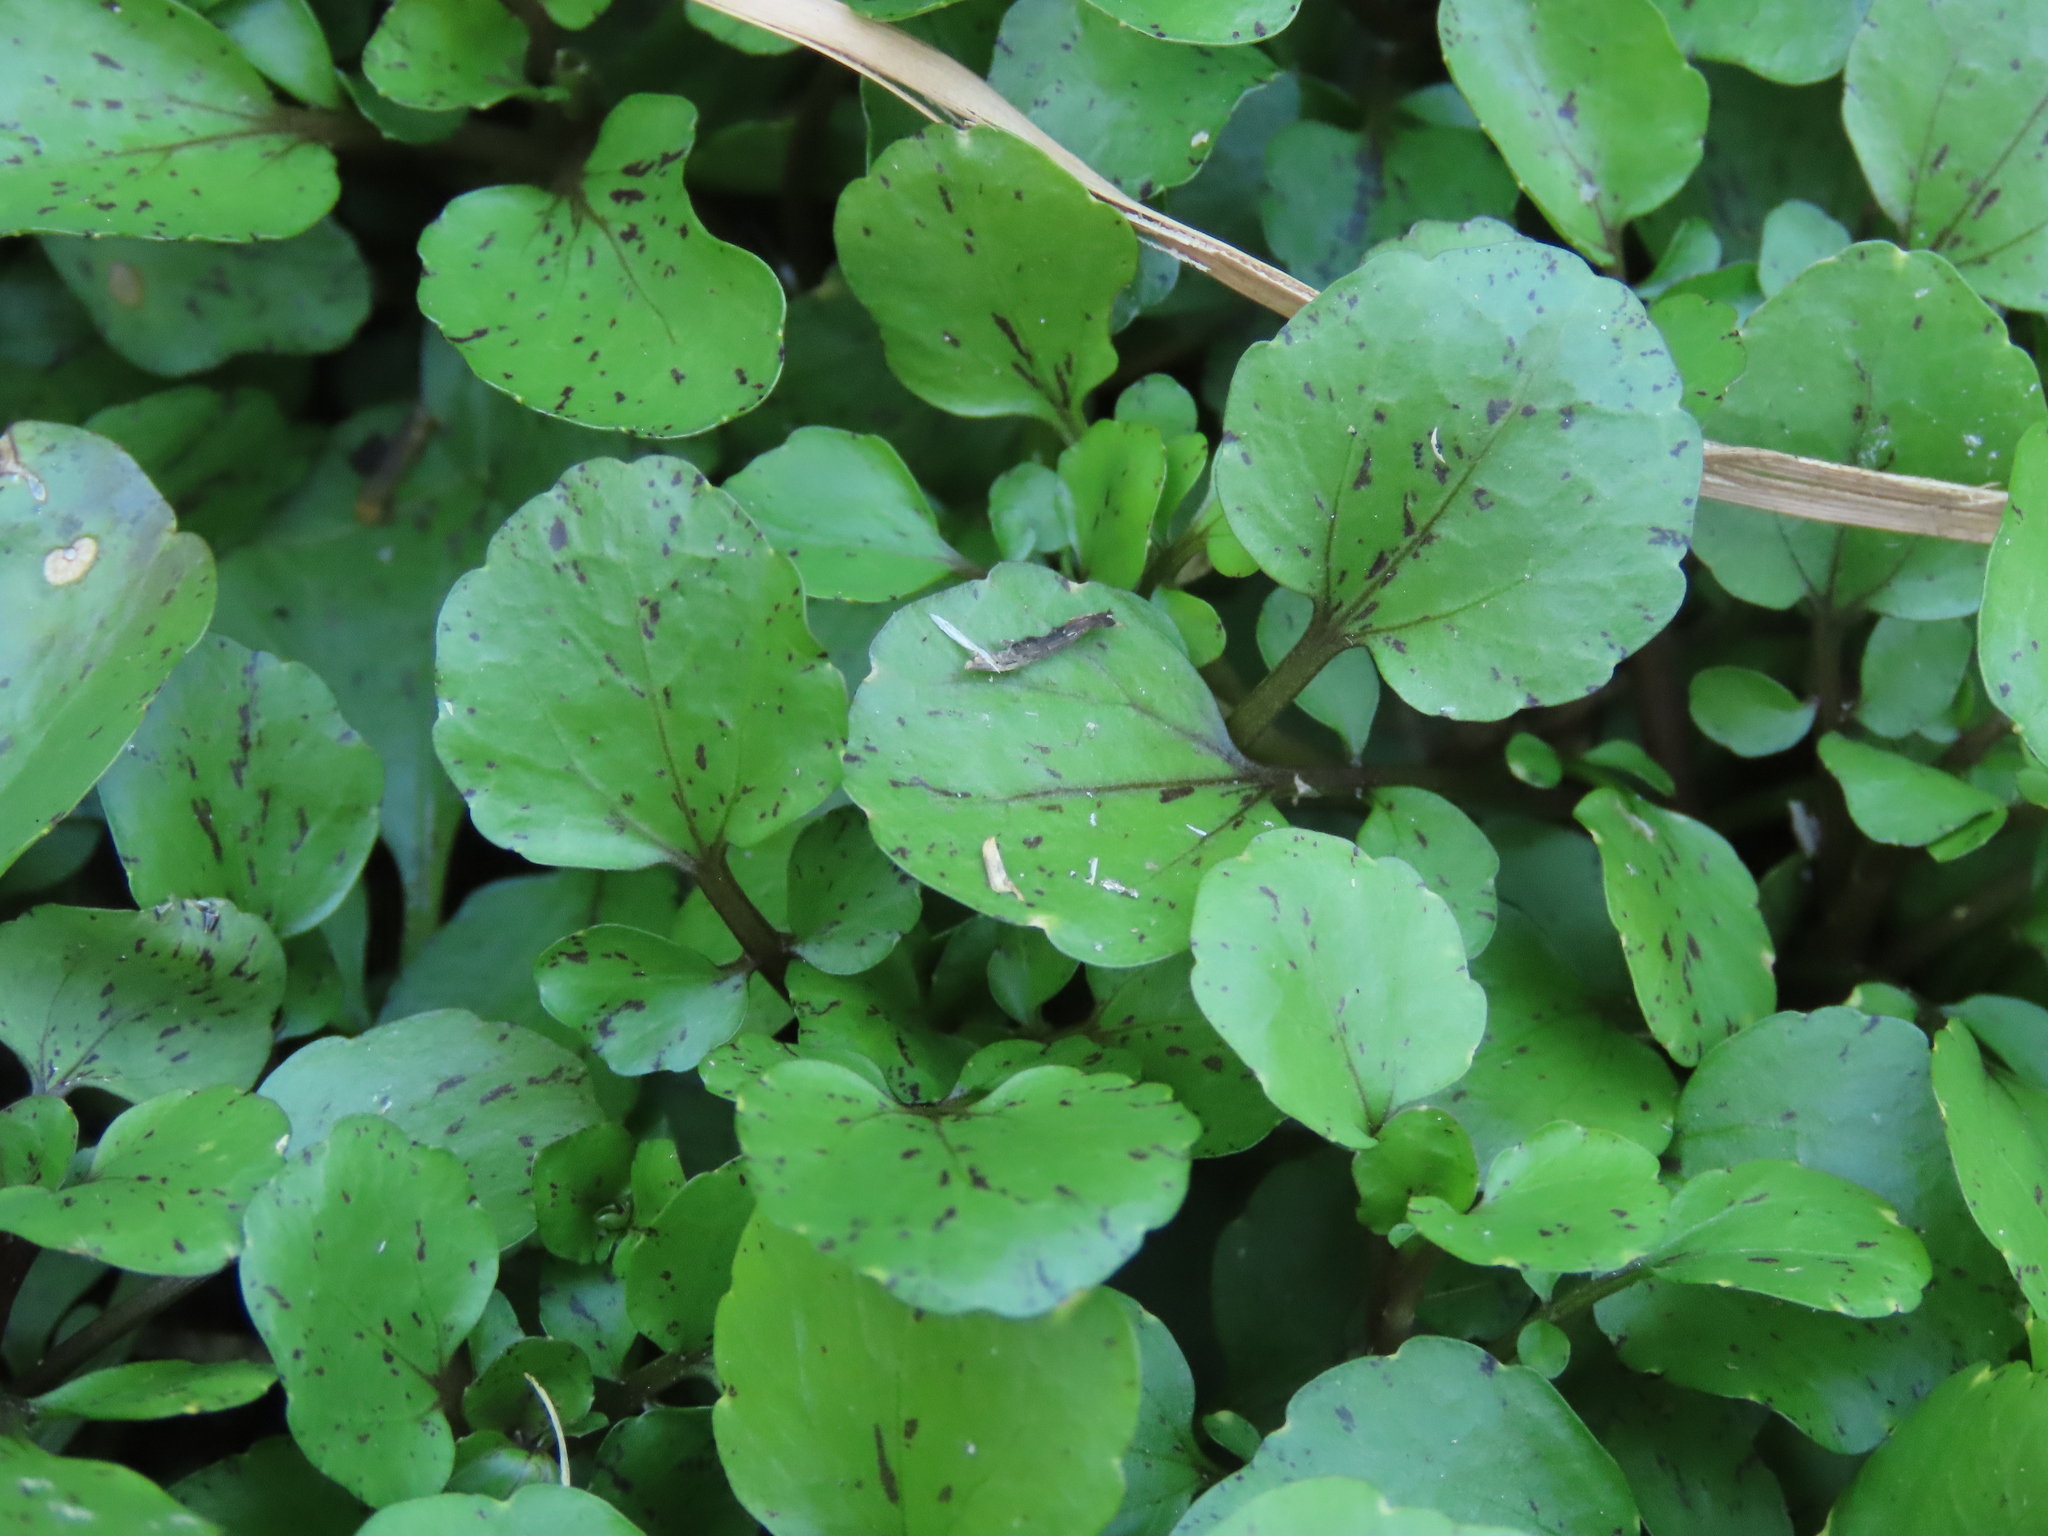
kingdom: Plantae
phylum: Tracheophyta
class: Magnoliopsida
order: Brassicales
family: Brassicaceae
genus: Nasturtium
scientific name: Nasturtium officinale
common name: Watercress
